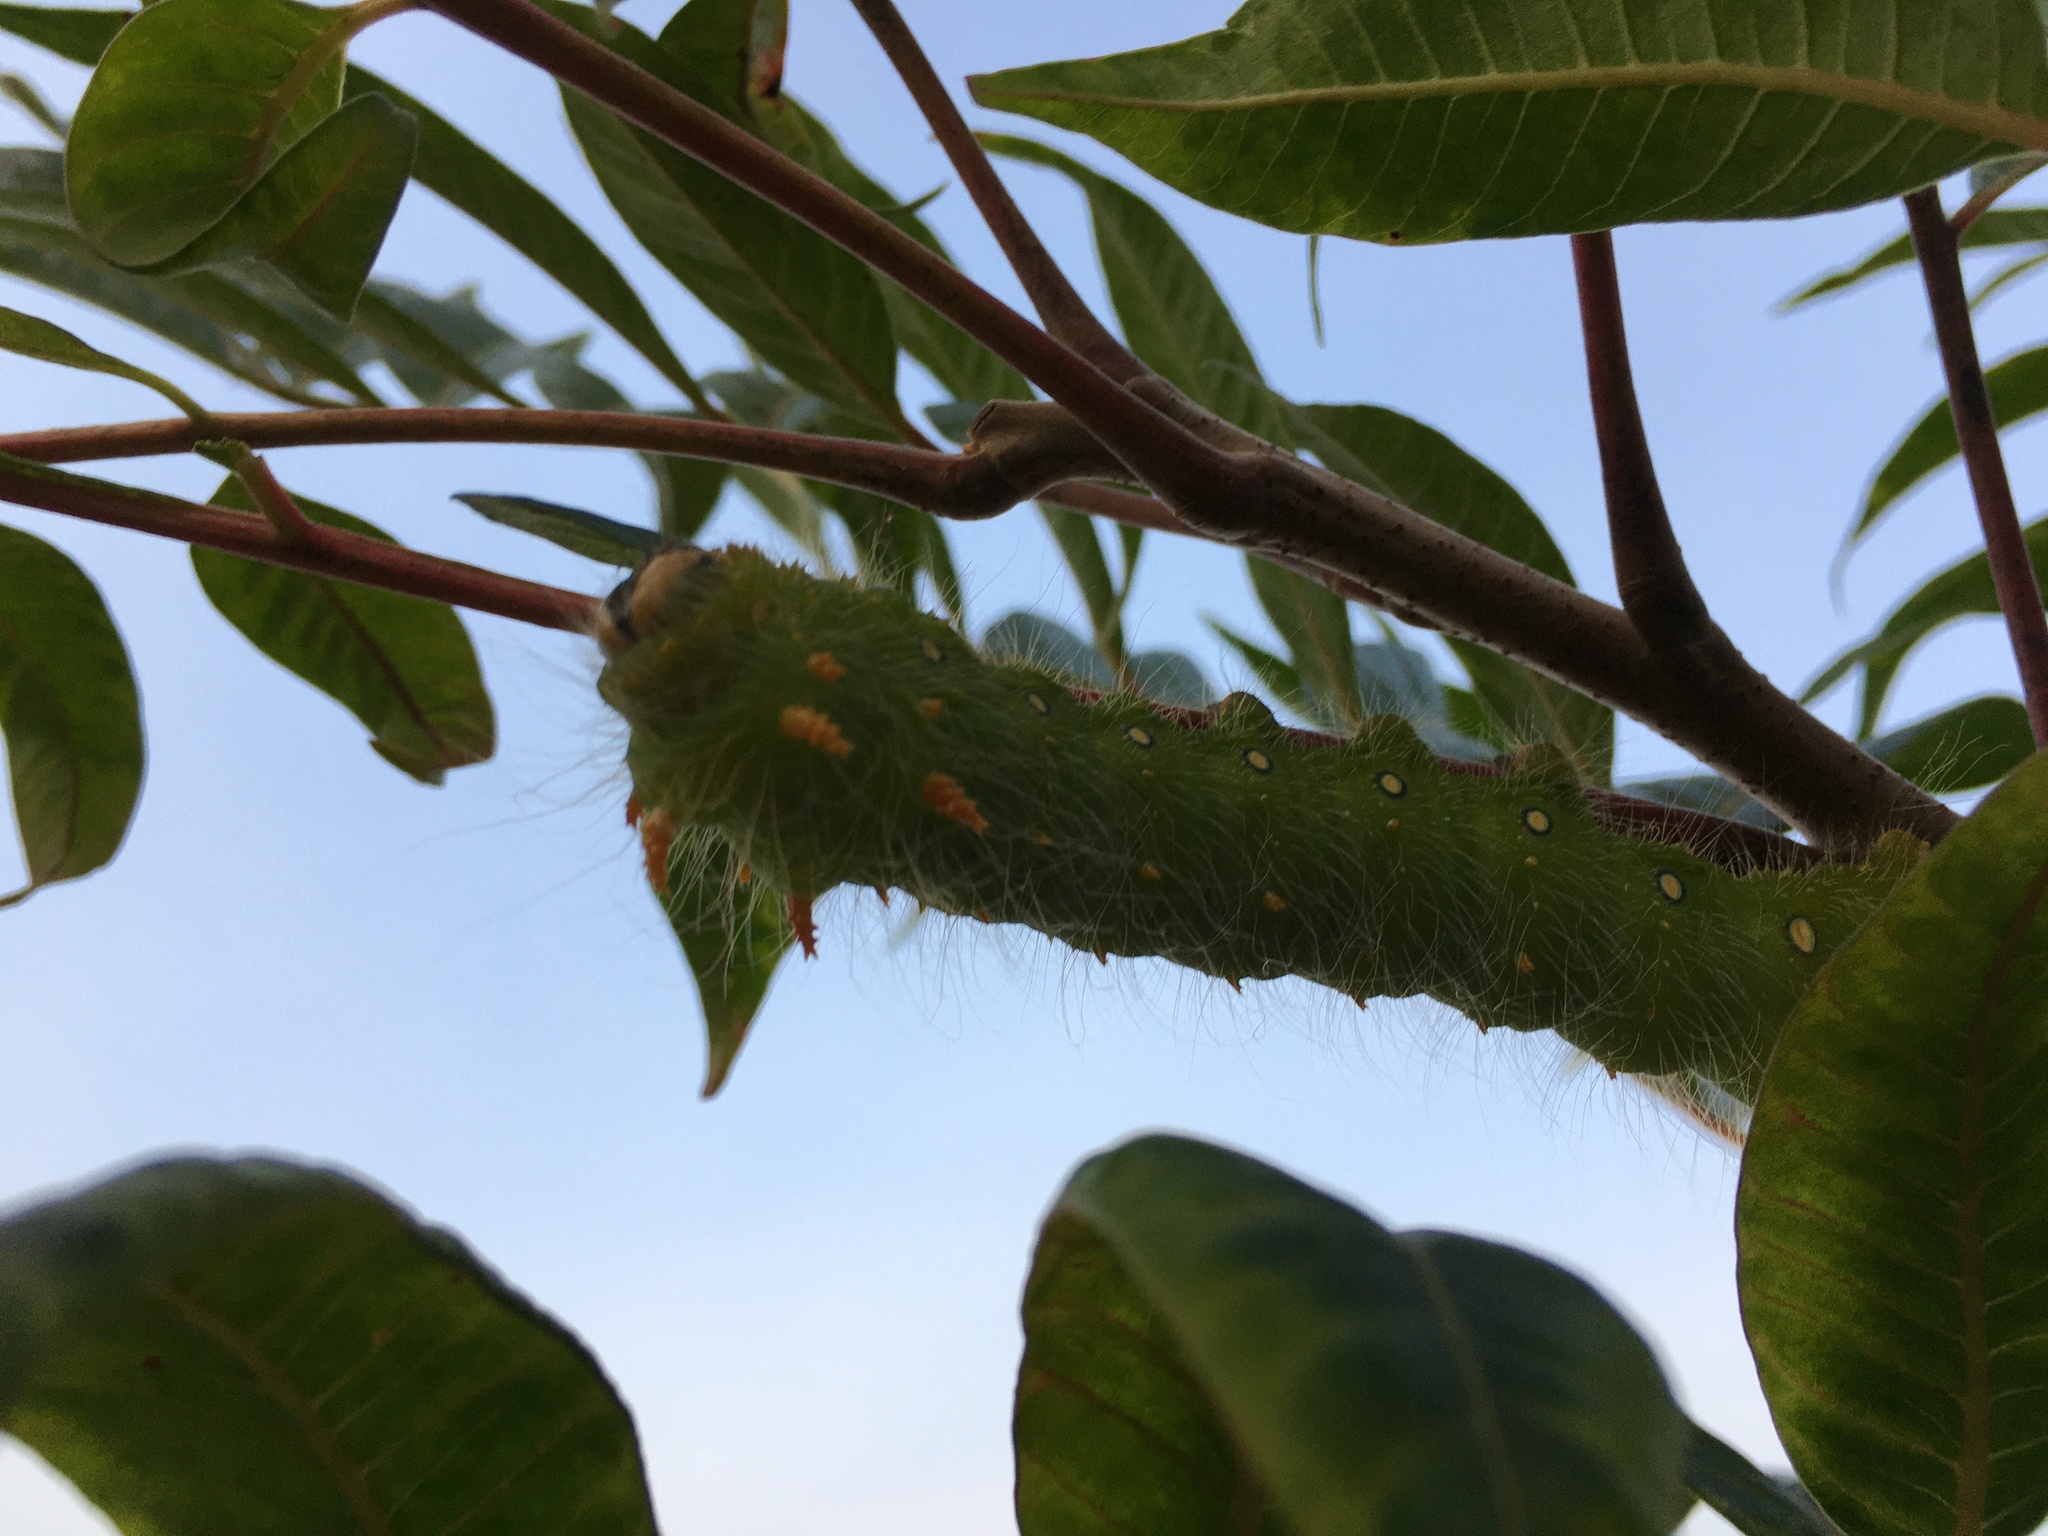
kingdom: Animalia
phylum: Arthropoda
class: Insecta
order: Lepidoptera
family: Saturniidae
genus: Eacles
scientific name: Eacles imperialis
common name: Imperial moth
